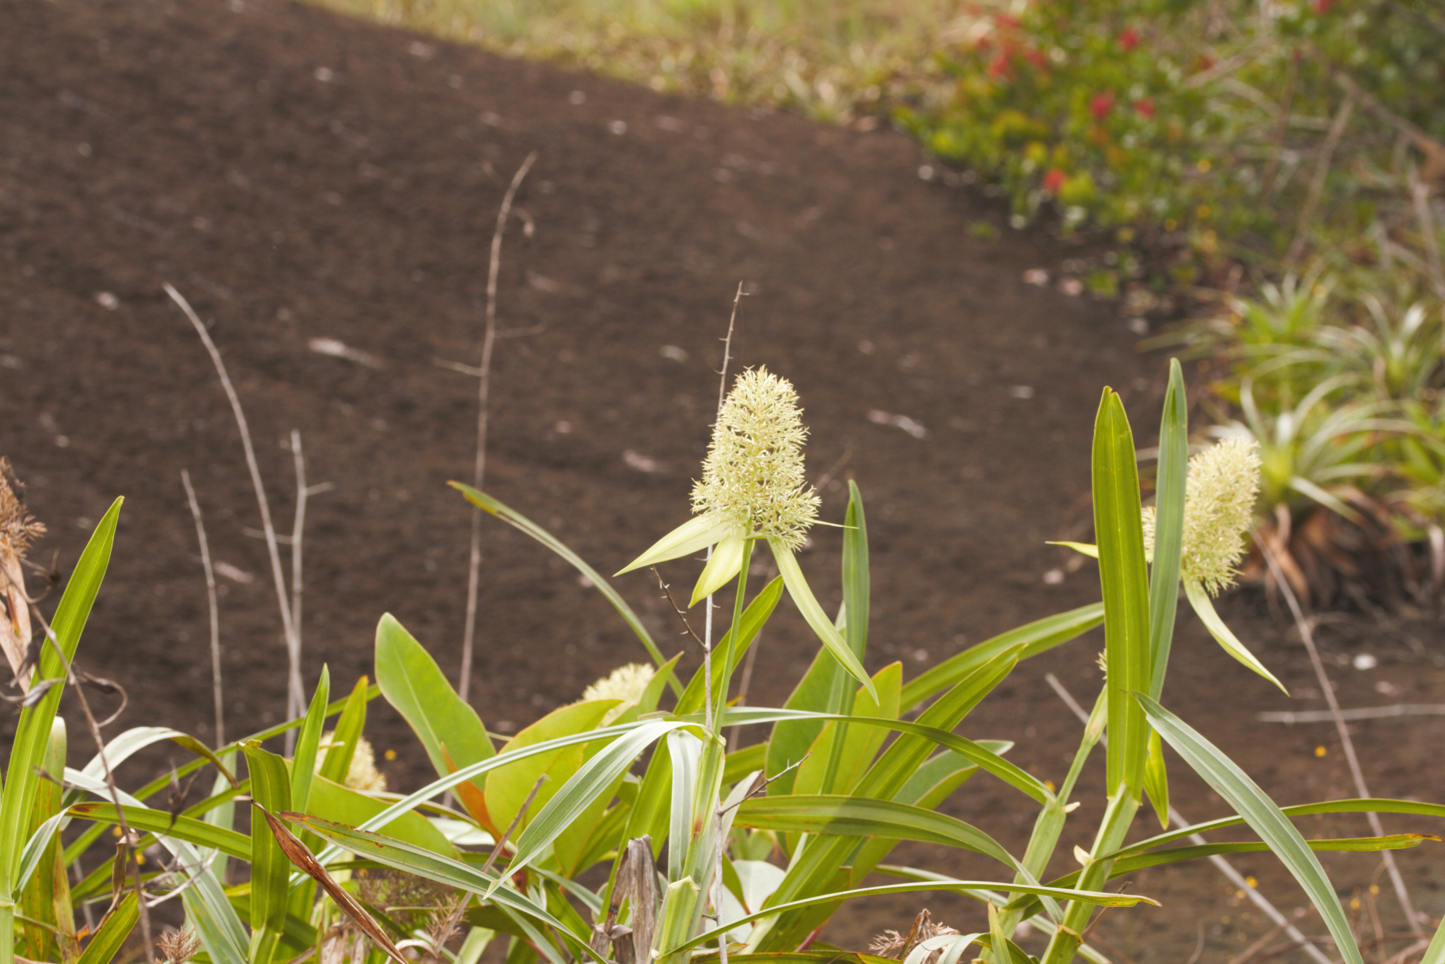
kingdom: Plantae
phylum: Tracheophyta
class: Liliopsida
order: Poales
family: Cyperaceae
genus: Scleria
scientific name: Scleria cyperina
